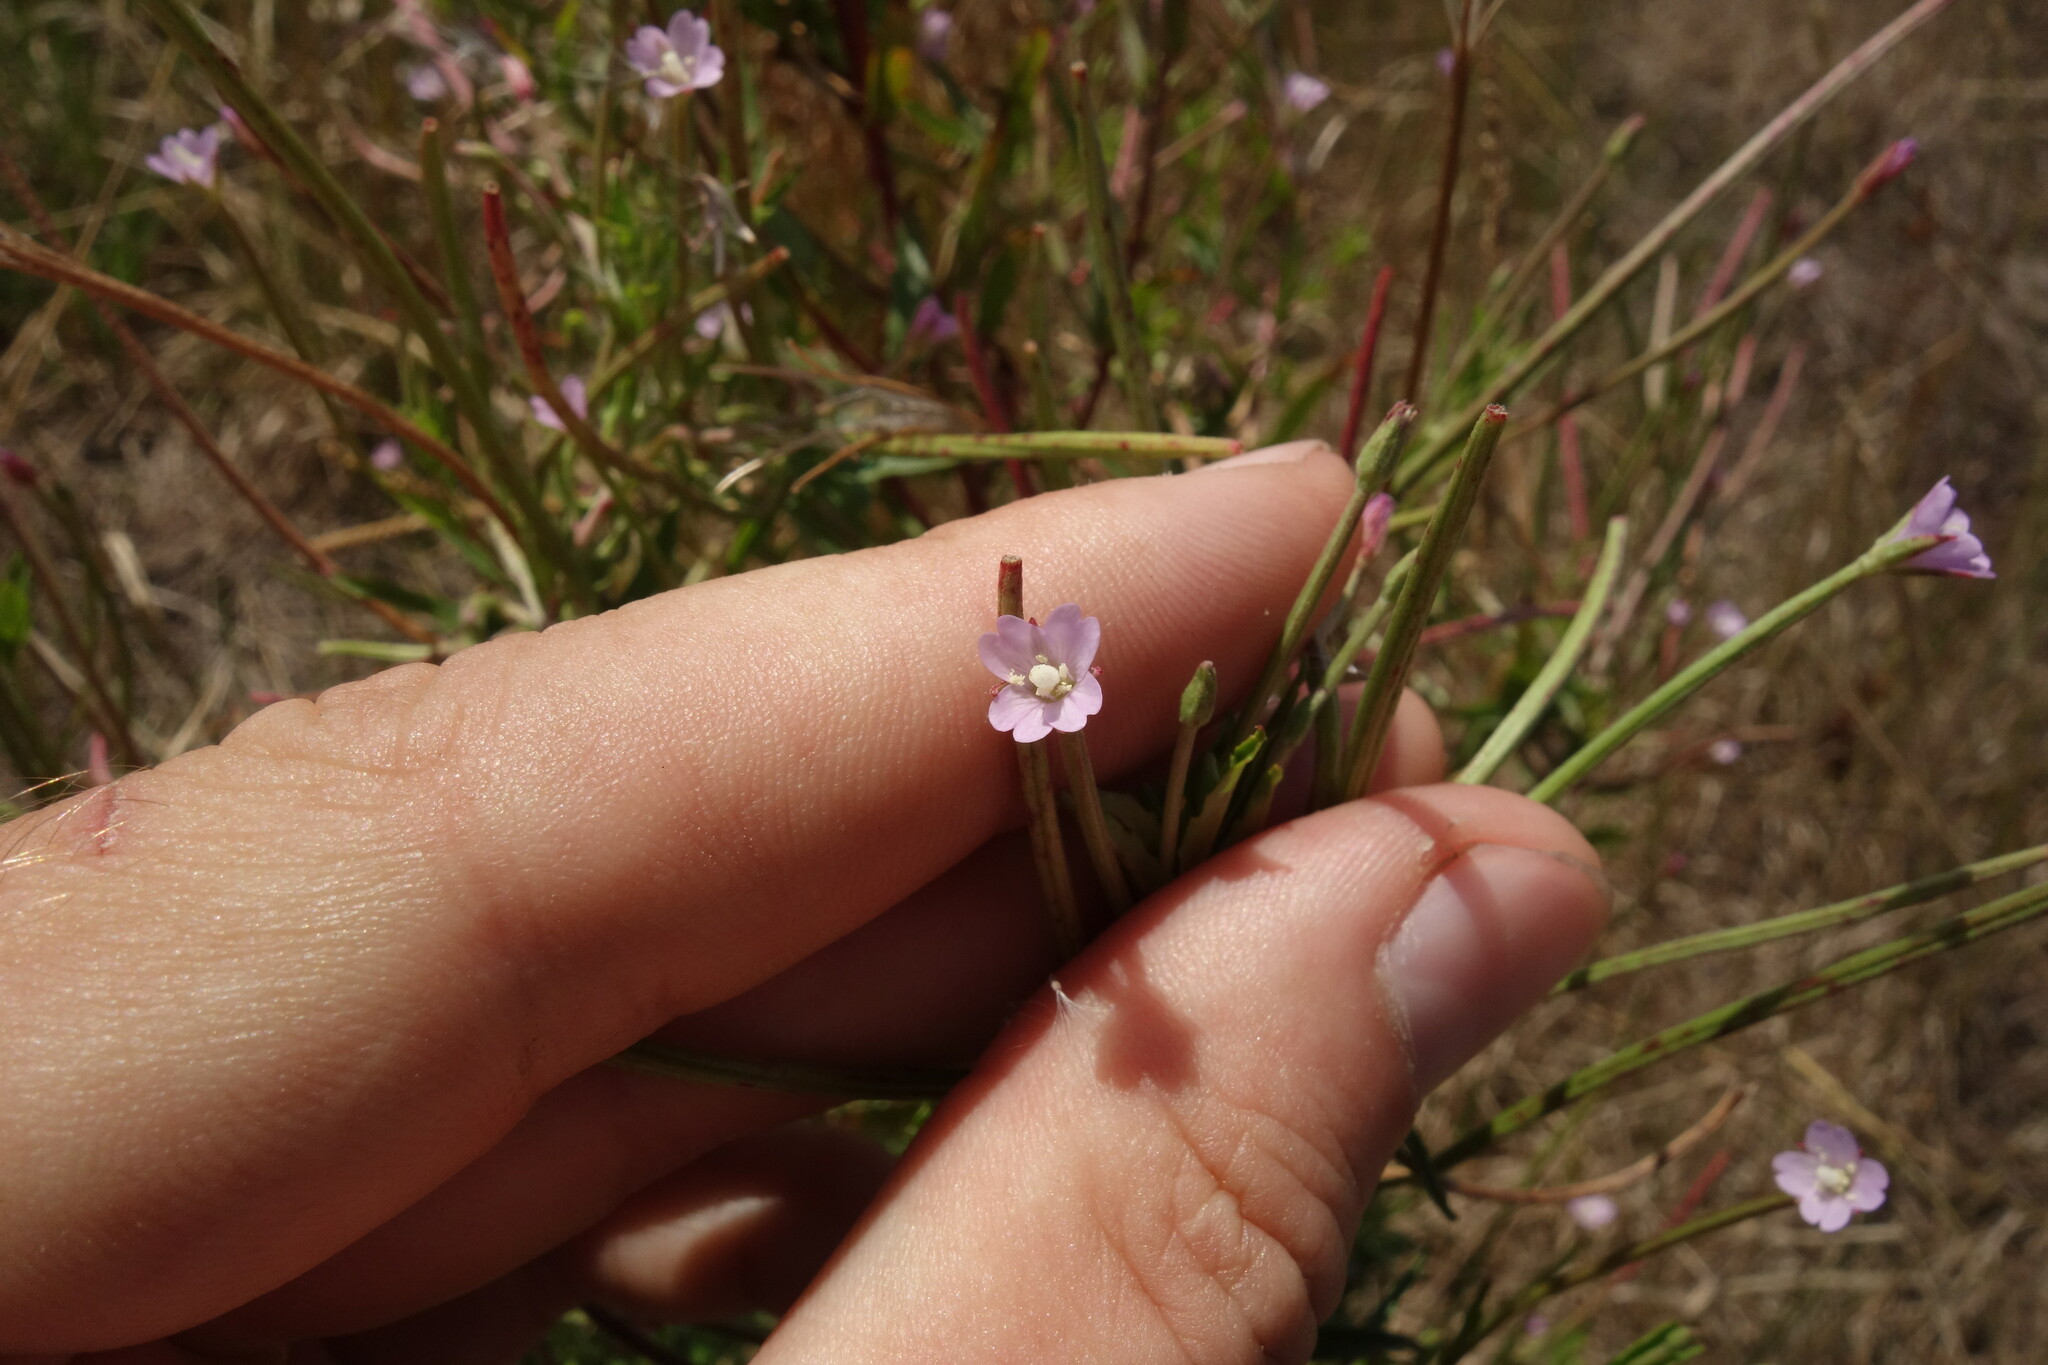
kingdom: Plantae
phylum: Tracheophyta
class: Magnoliopsida
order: Myrtales
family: Onagraceae
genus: Epilobium
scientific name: Epilobium tetragonum
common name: Square-stemmed willowherb
